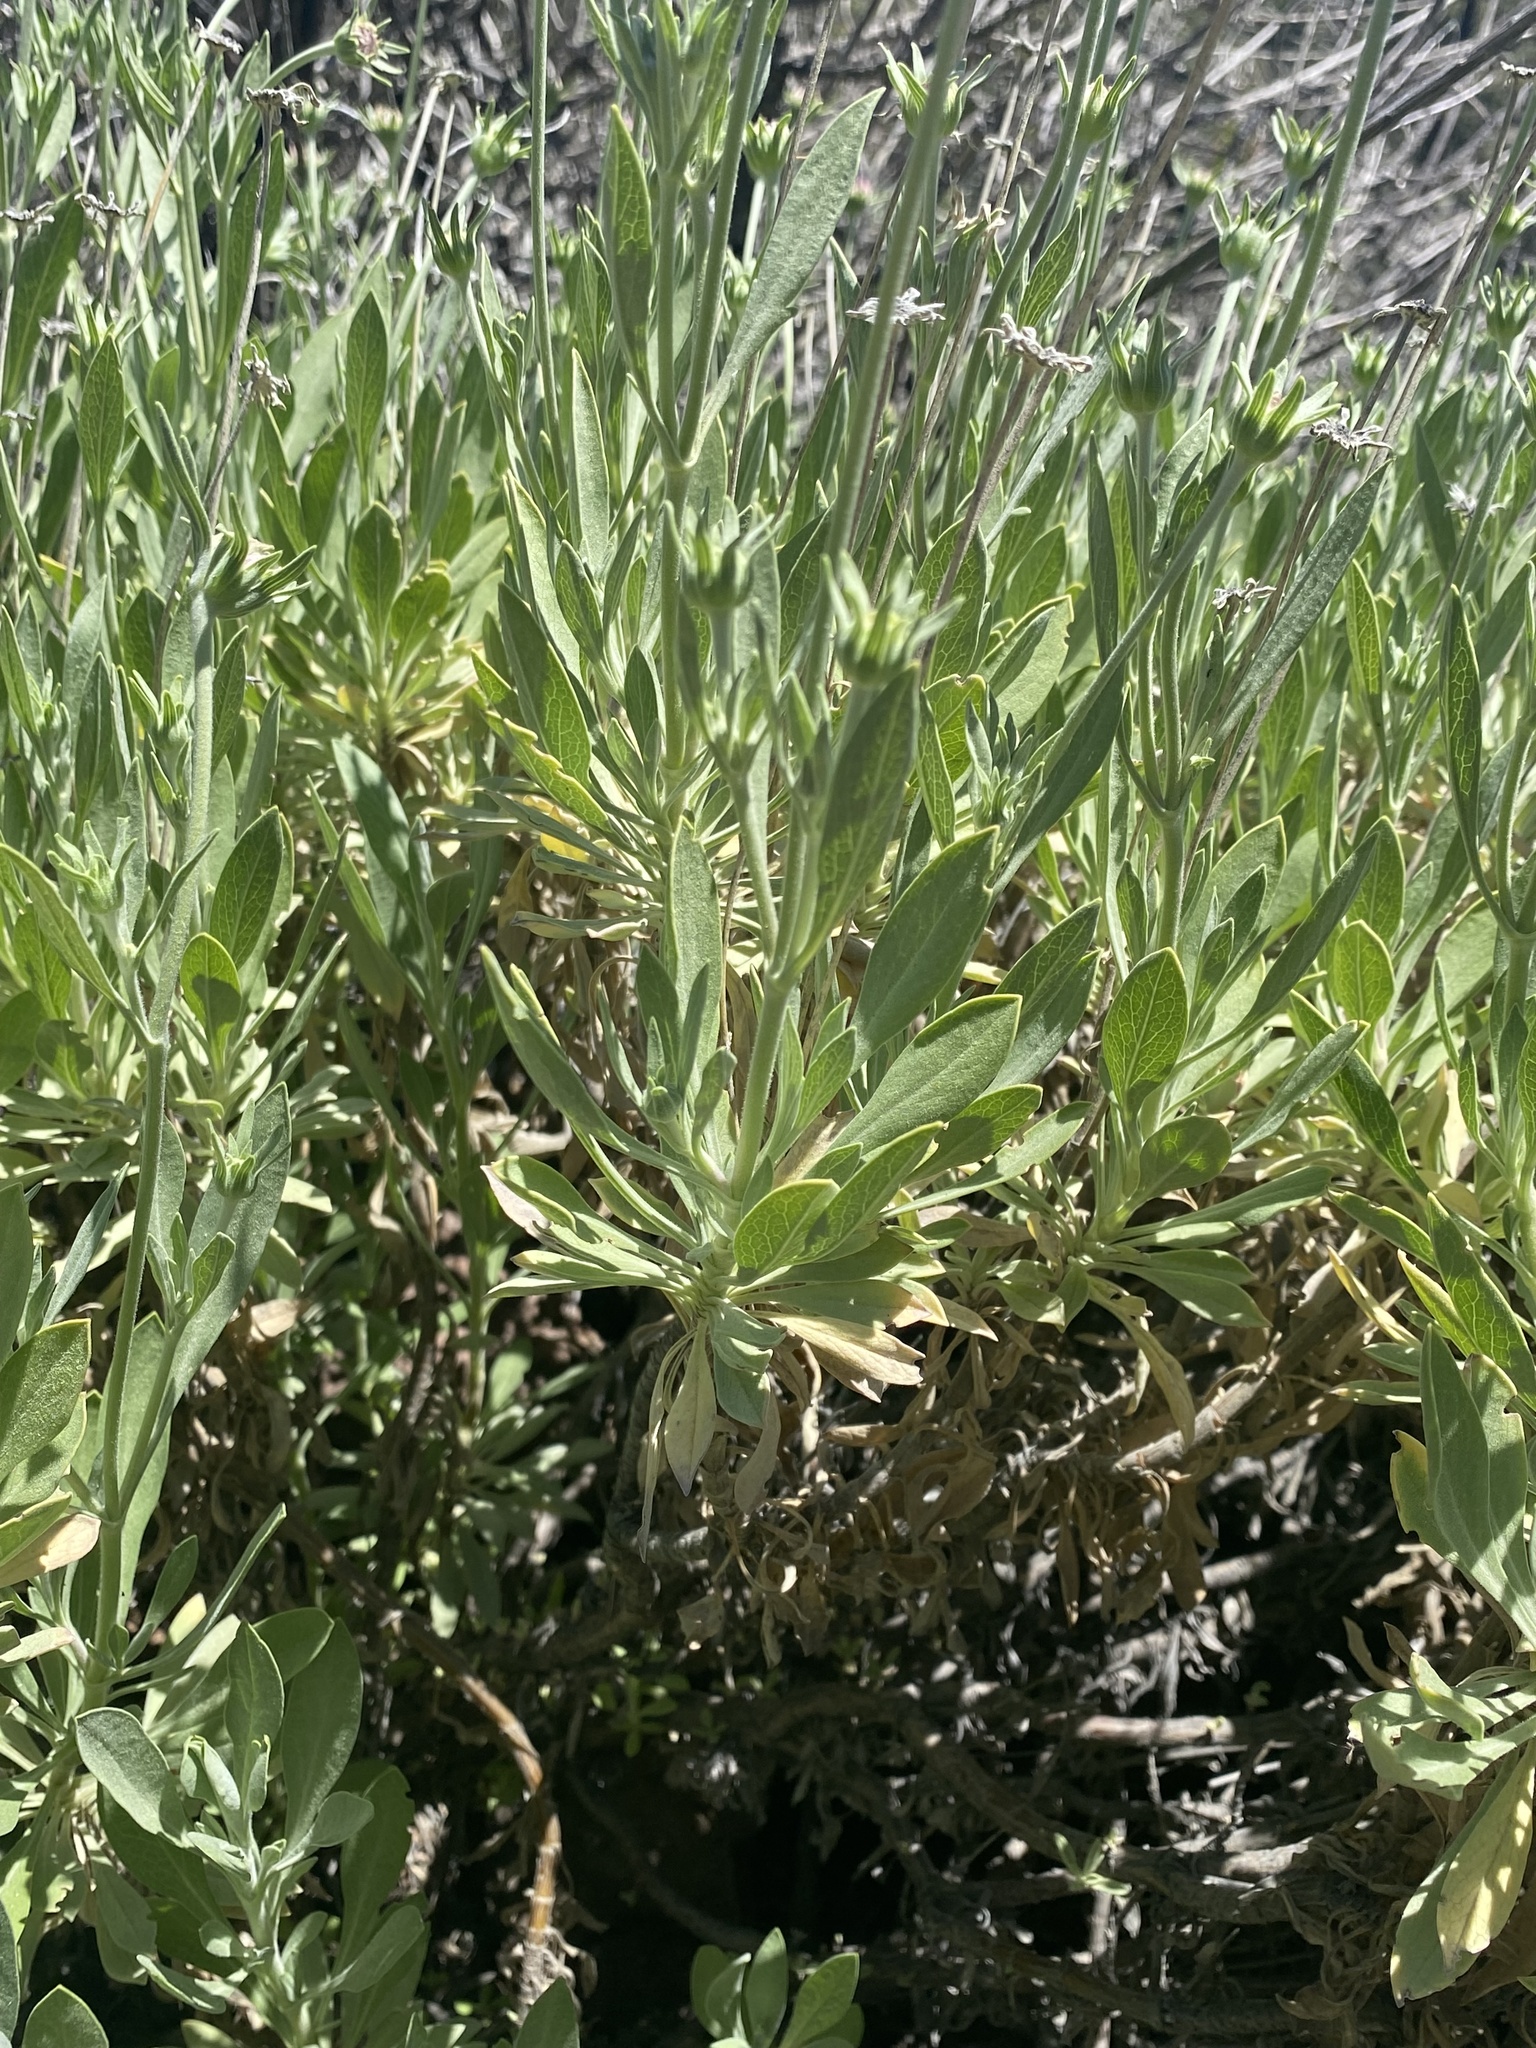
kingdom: Plantae
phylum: Tracheophyta
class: Magnoliopsida
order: Dipsacales
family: Caprifoliaceae
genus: Pterocephalus
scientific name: Pterocephalus lasiospermus
